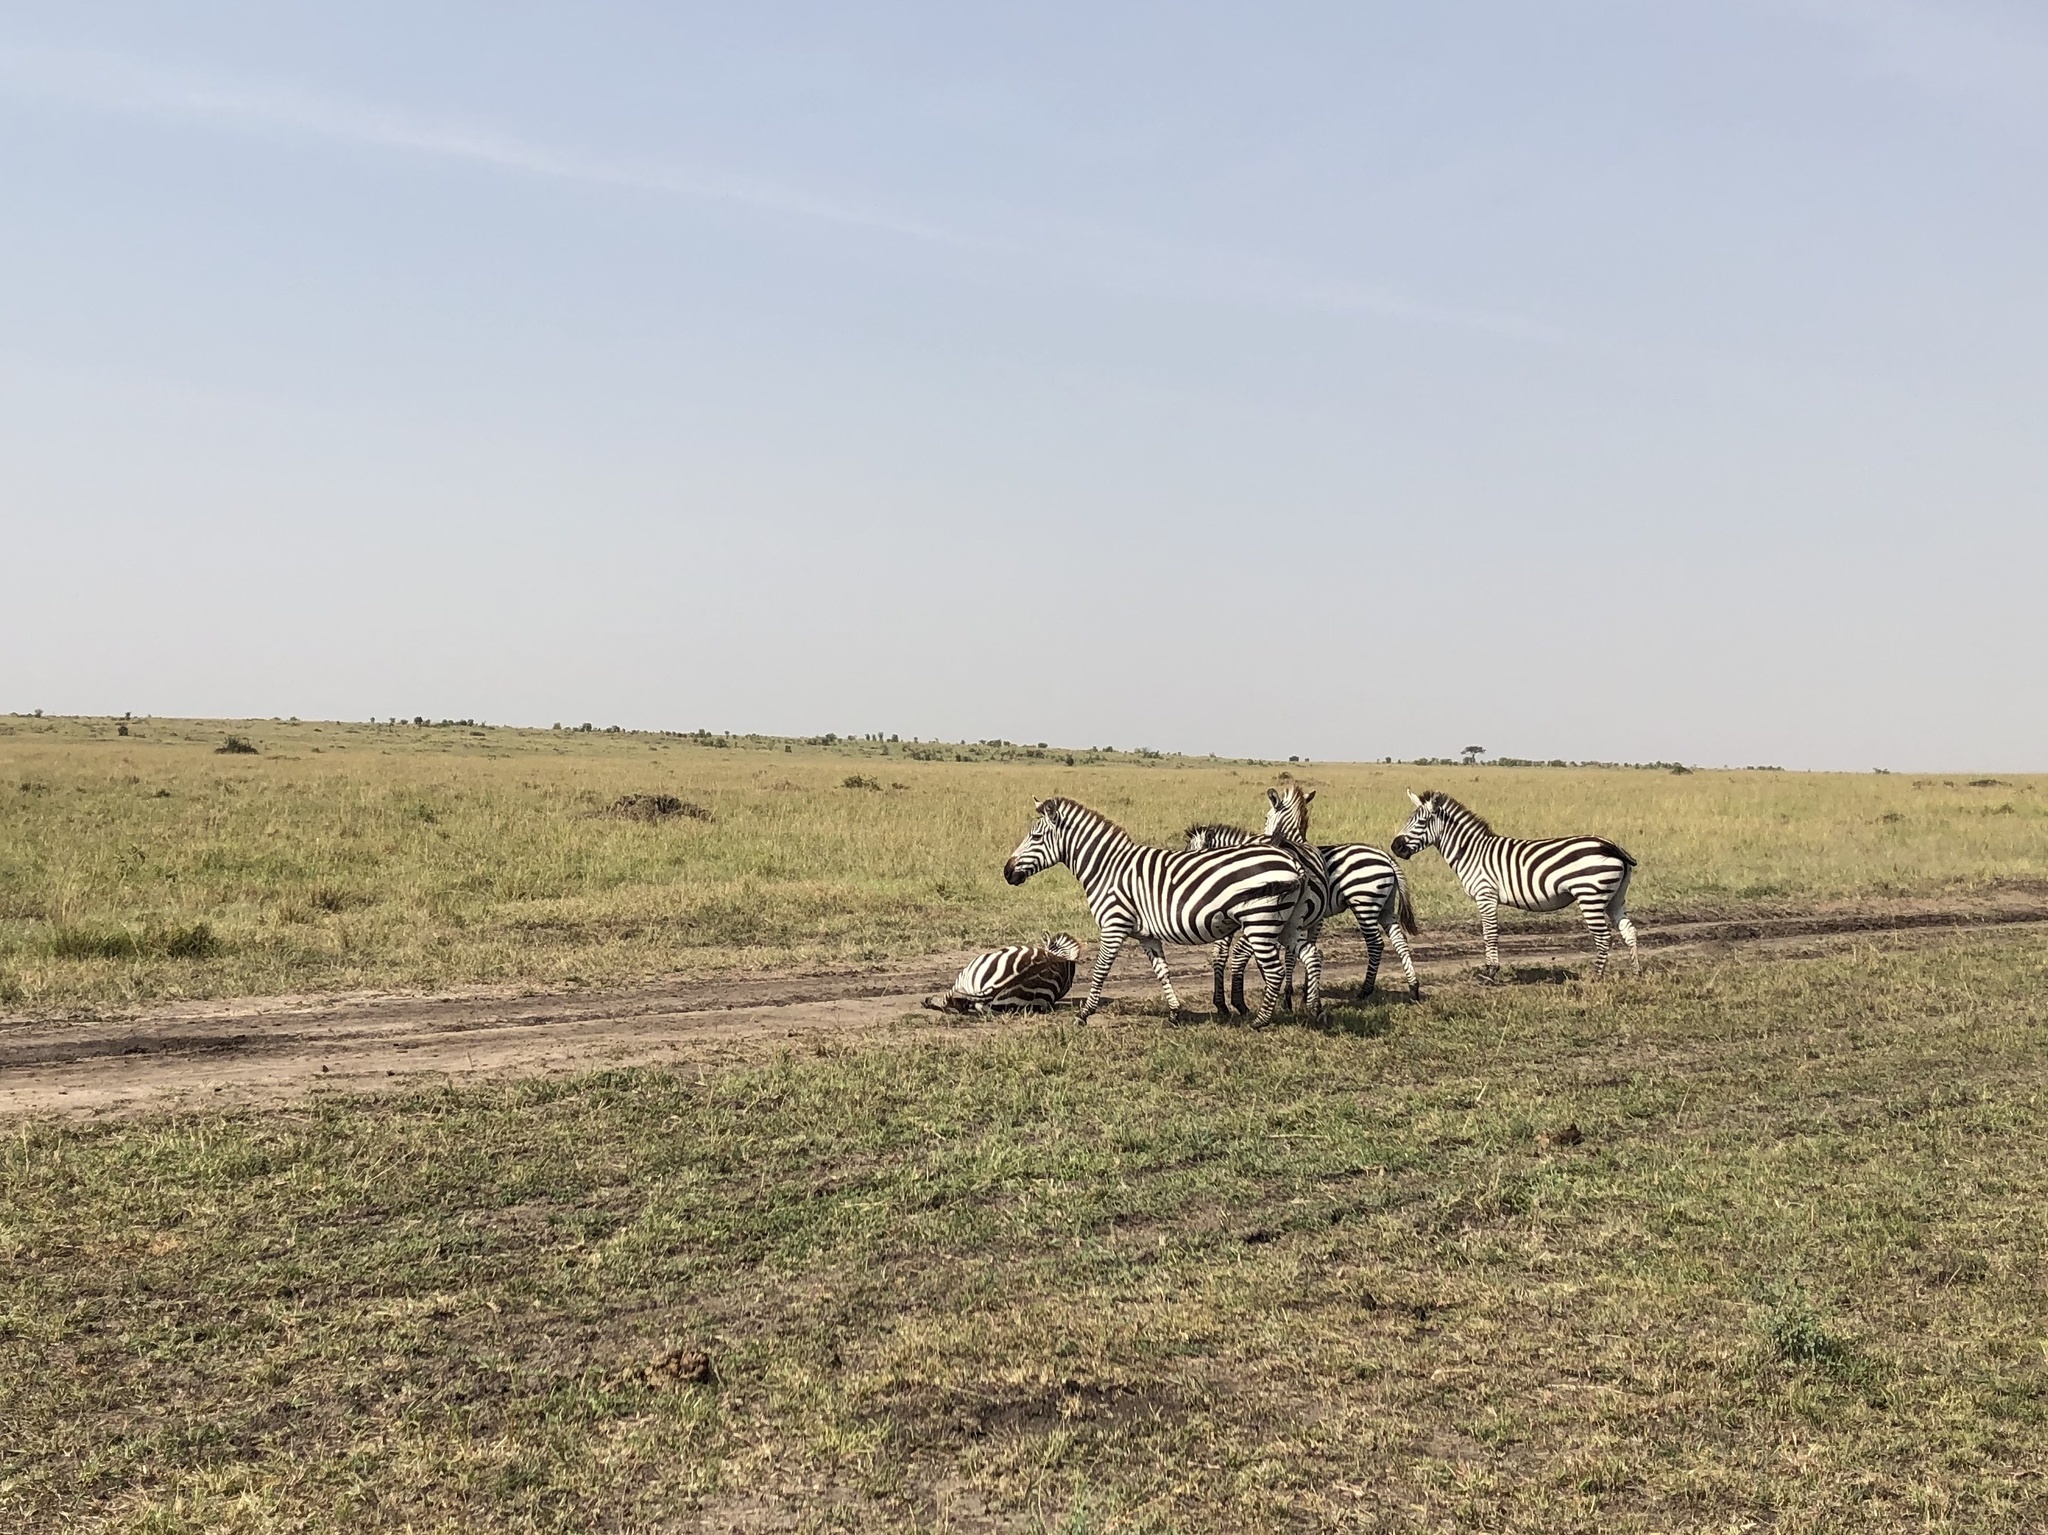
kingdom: Animalia
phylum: Chordata
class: Mammalia
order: Perissodactyla
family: Equidae
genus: Equus
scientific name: Equus quagga
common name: Plains zebra
